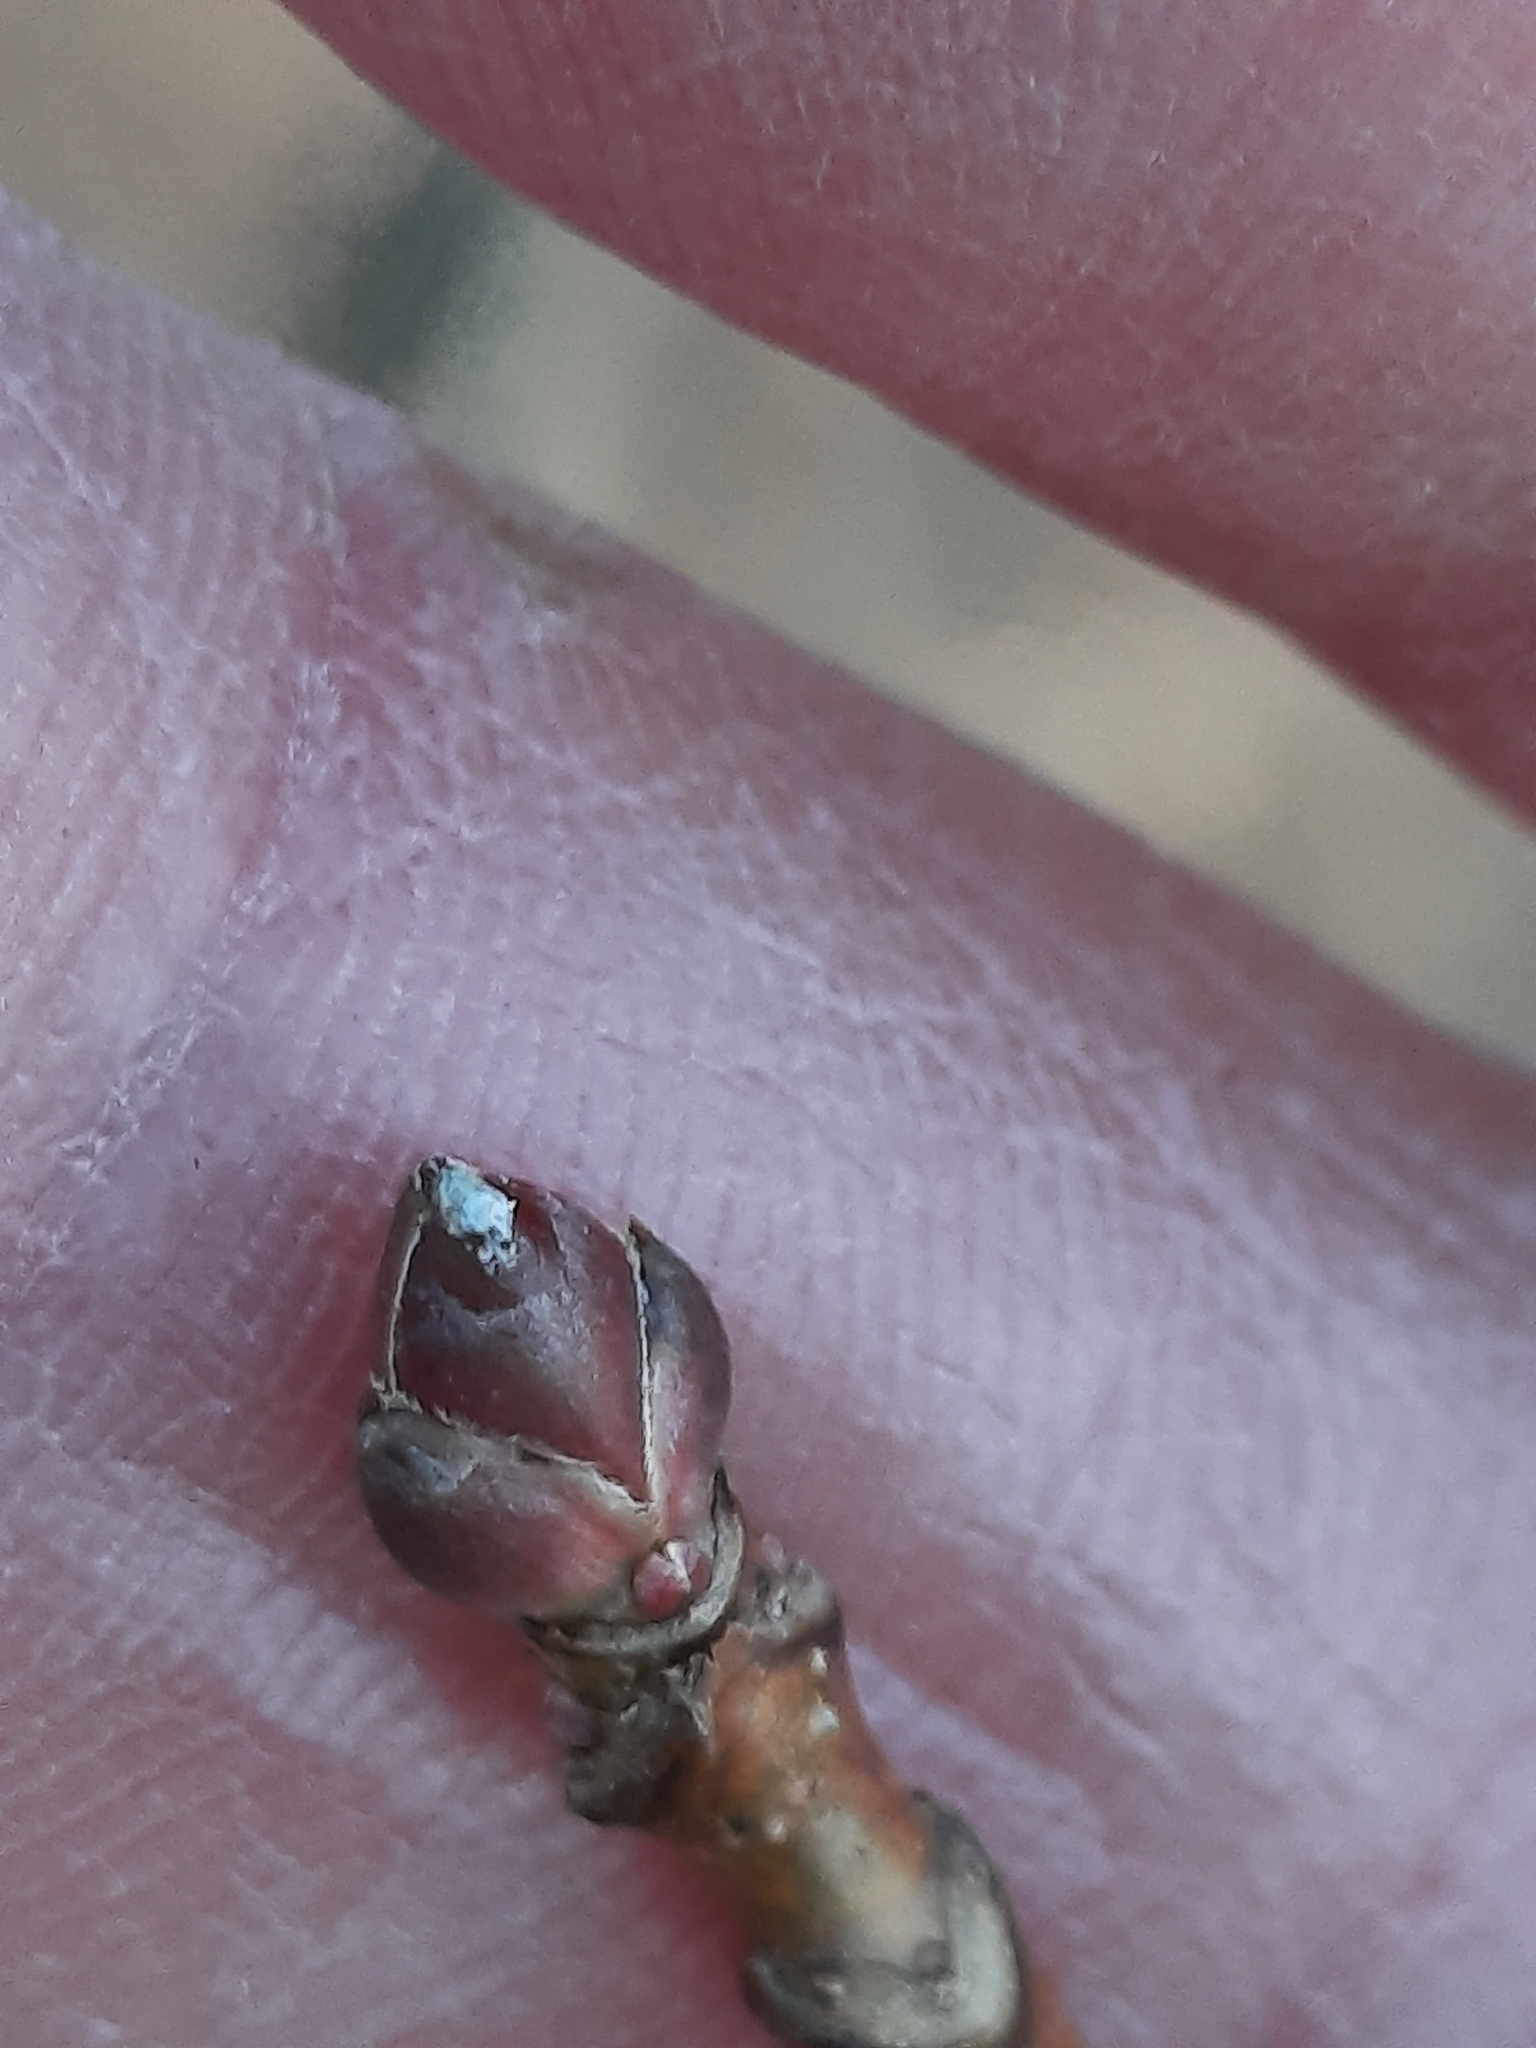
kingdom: Plantae
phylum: Tracheophyta
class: Magnoliopsida
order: Sapindales
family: Sapindaceae
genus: Acer
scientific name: Acer saccharinum
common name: Silver maple
